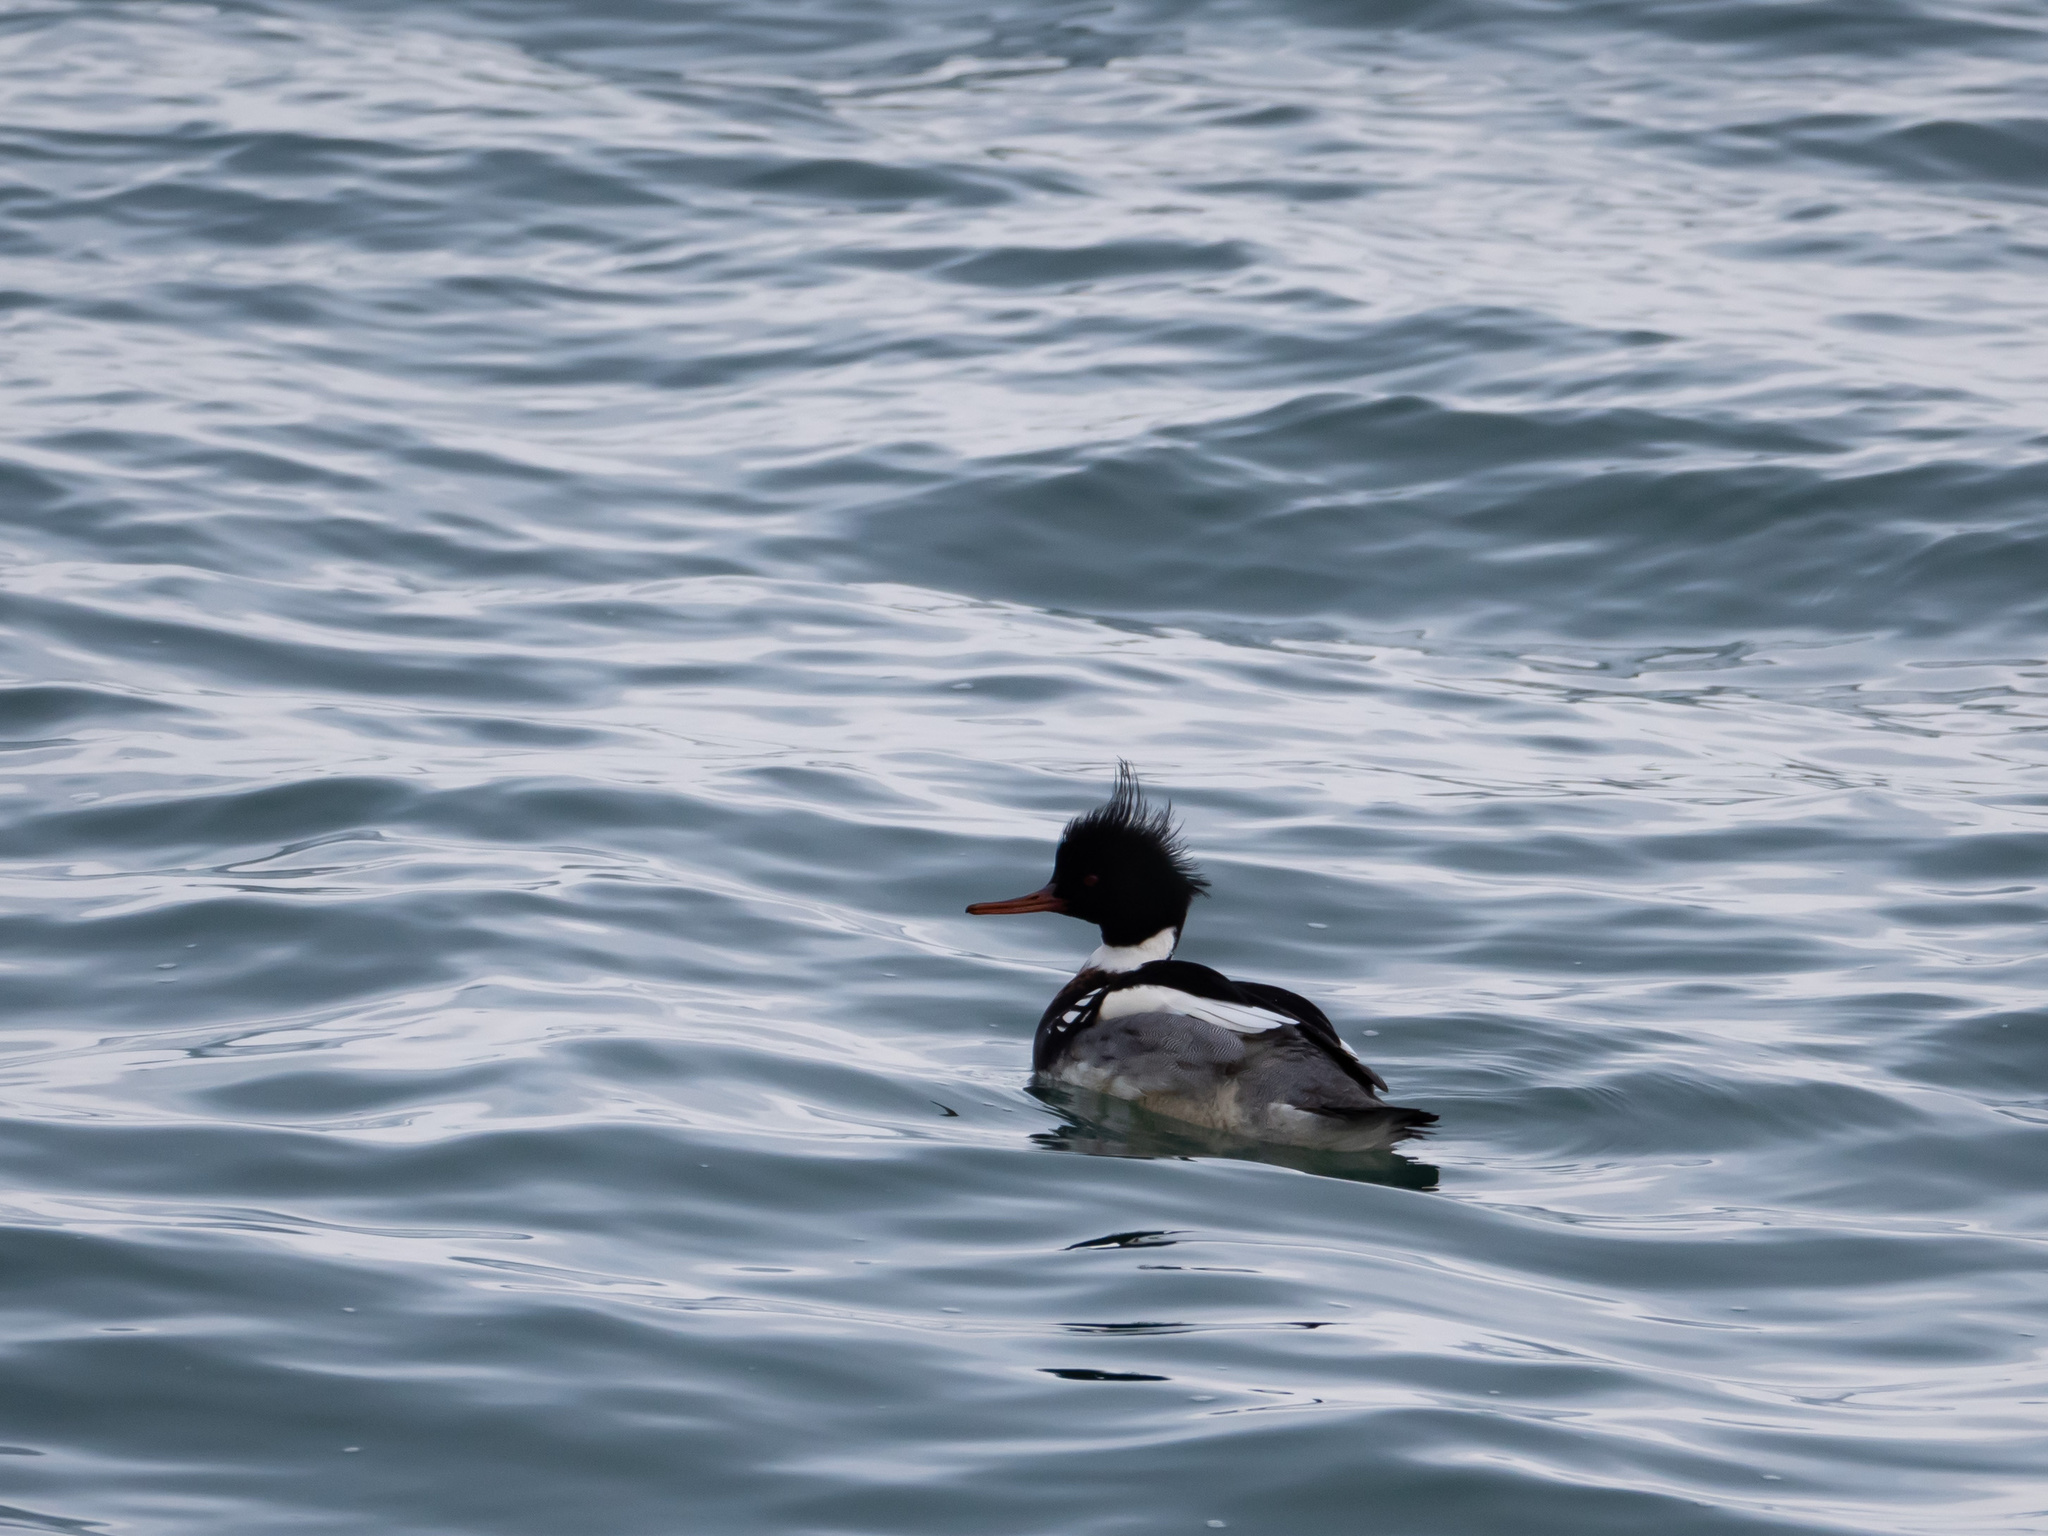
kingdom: Animalia
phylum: Chordata
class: Aves
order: Anseriformes
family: Anatidae
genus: Mergus
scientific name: Mergus serrator
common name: Red-breasted merganser
